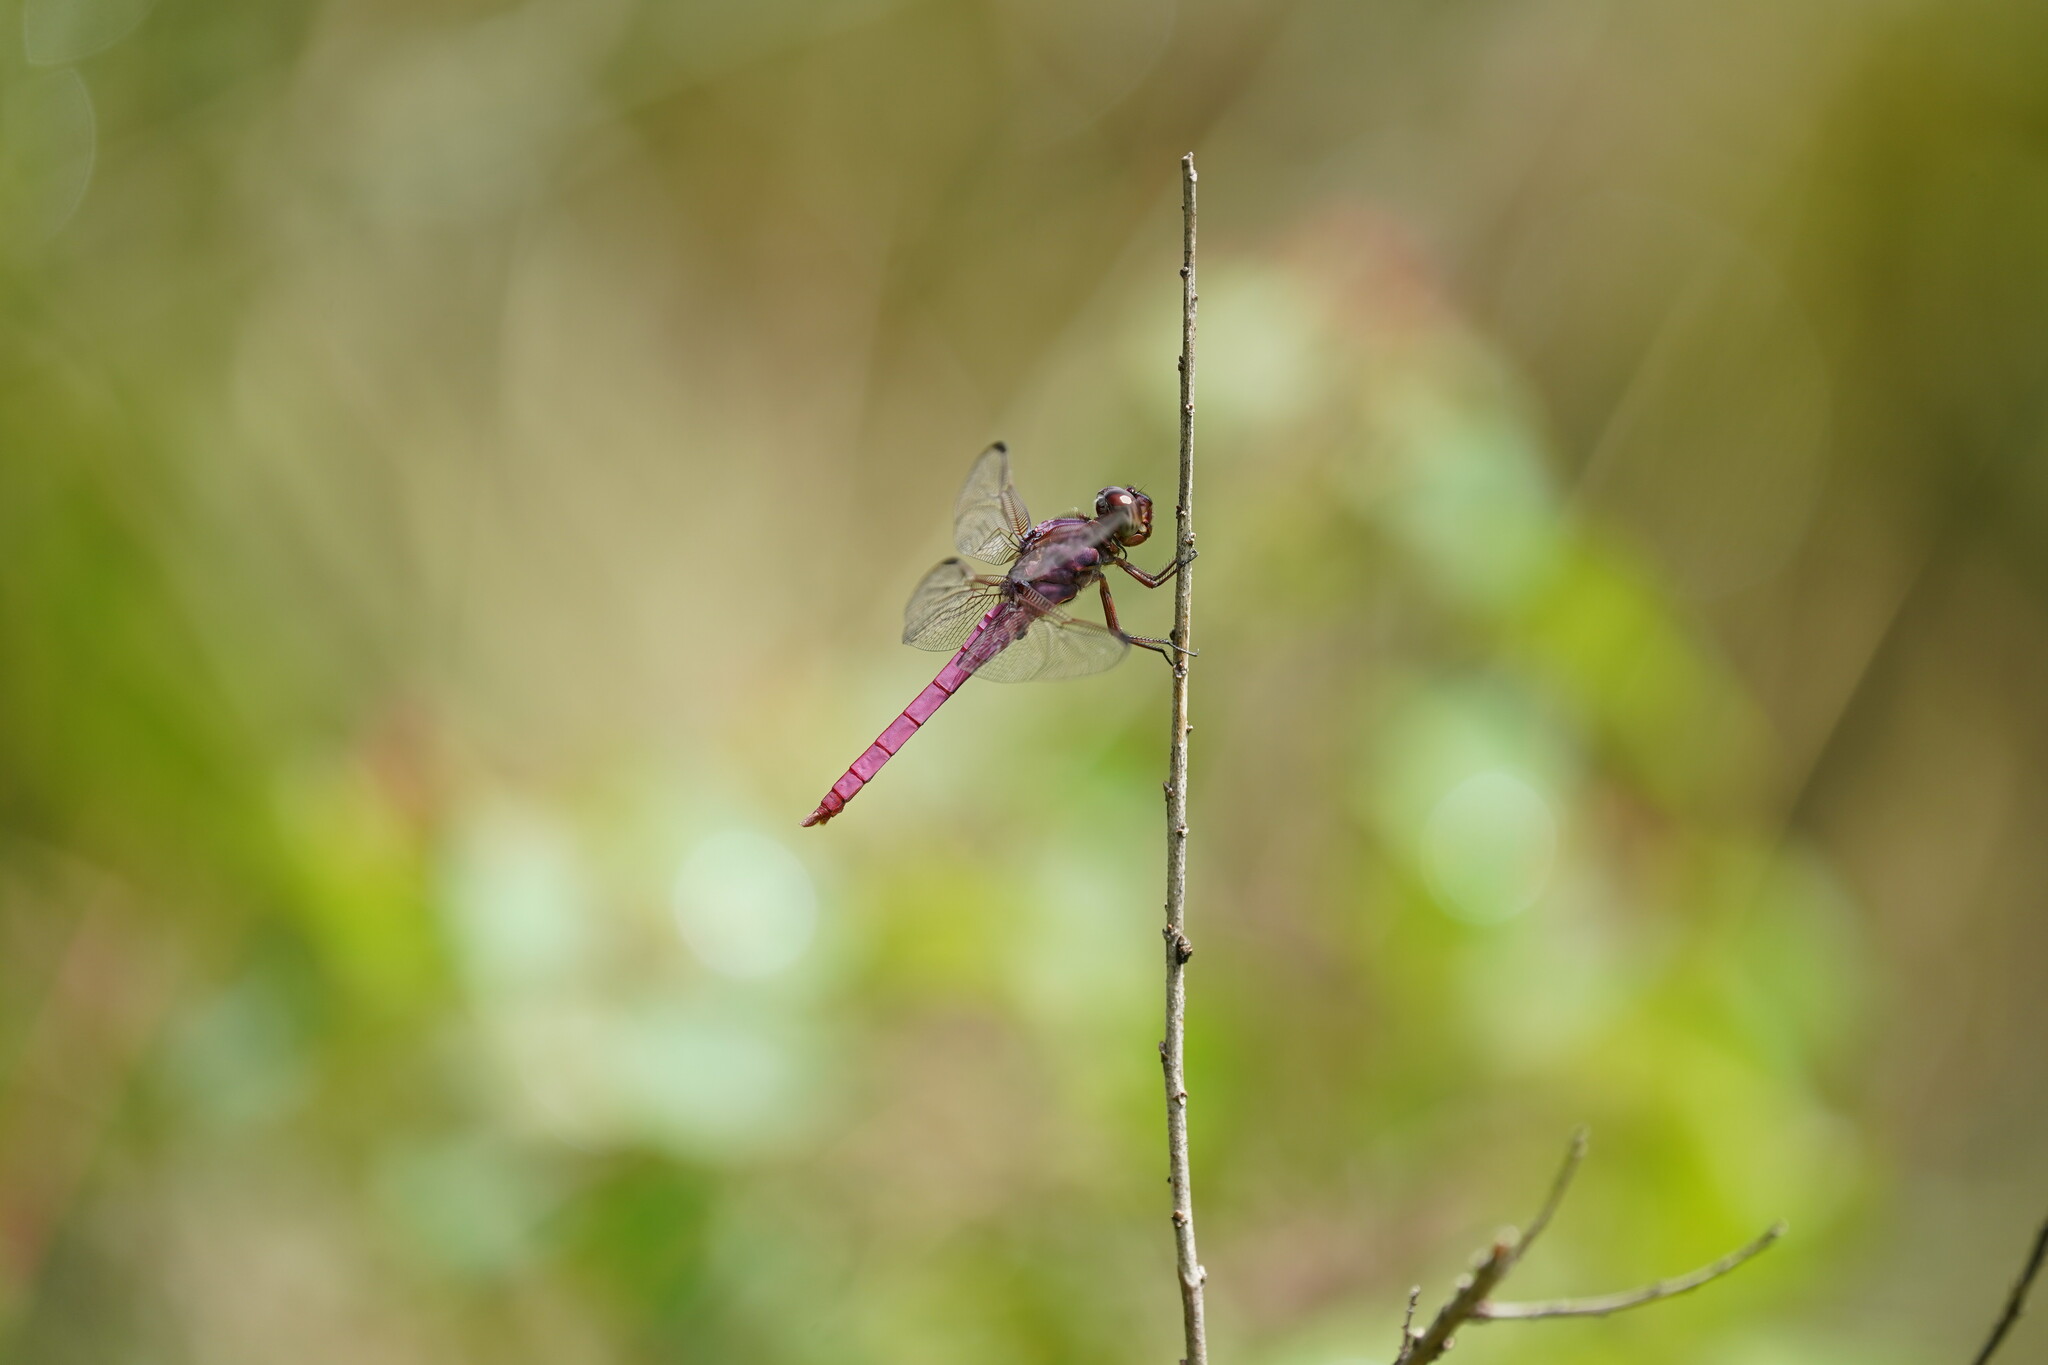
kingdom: Animalia
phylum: Arthropoda
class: Insecta
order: Odonata
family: Libellulidae
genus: Orthemis
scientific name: Orthemis ferruginea
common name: Roseate skimmer
